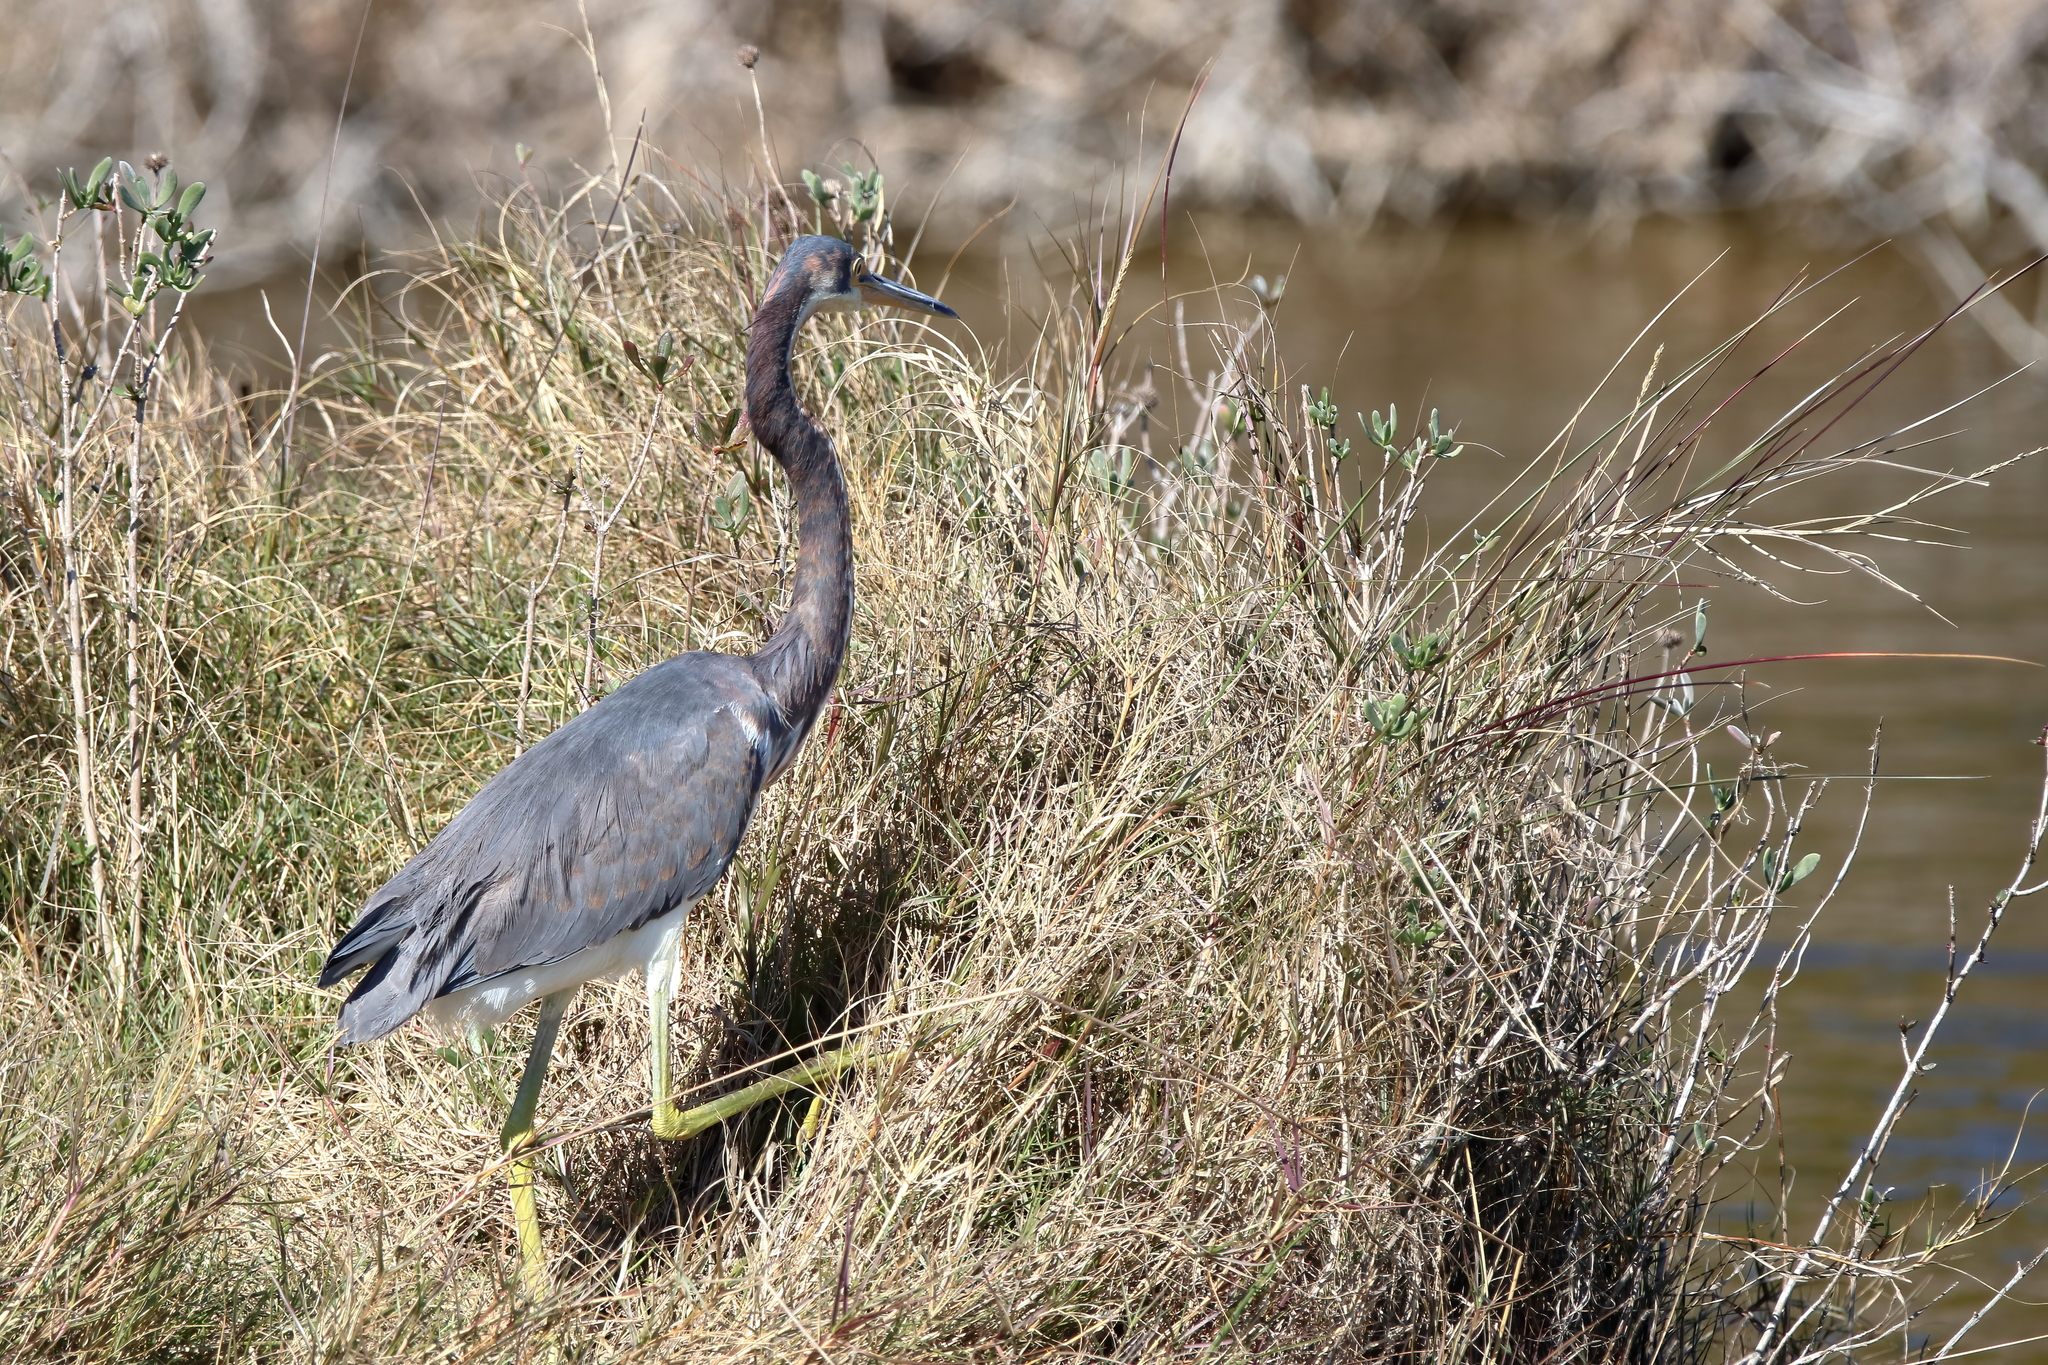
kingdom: Animalia
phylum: Chordata
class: Aves
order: Pelecaniformes
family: Ardeidae
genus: Egretta
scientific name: Egretta tricolor
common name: Tricolored heron
